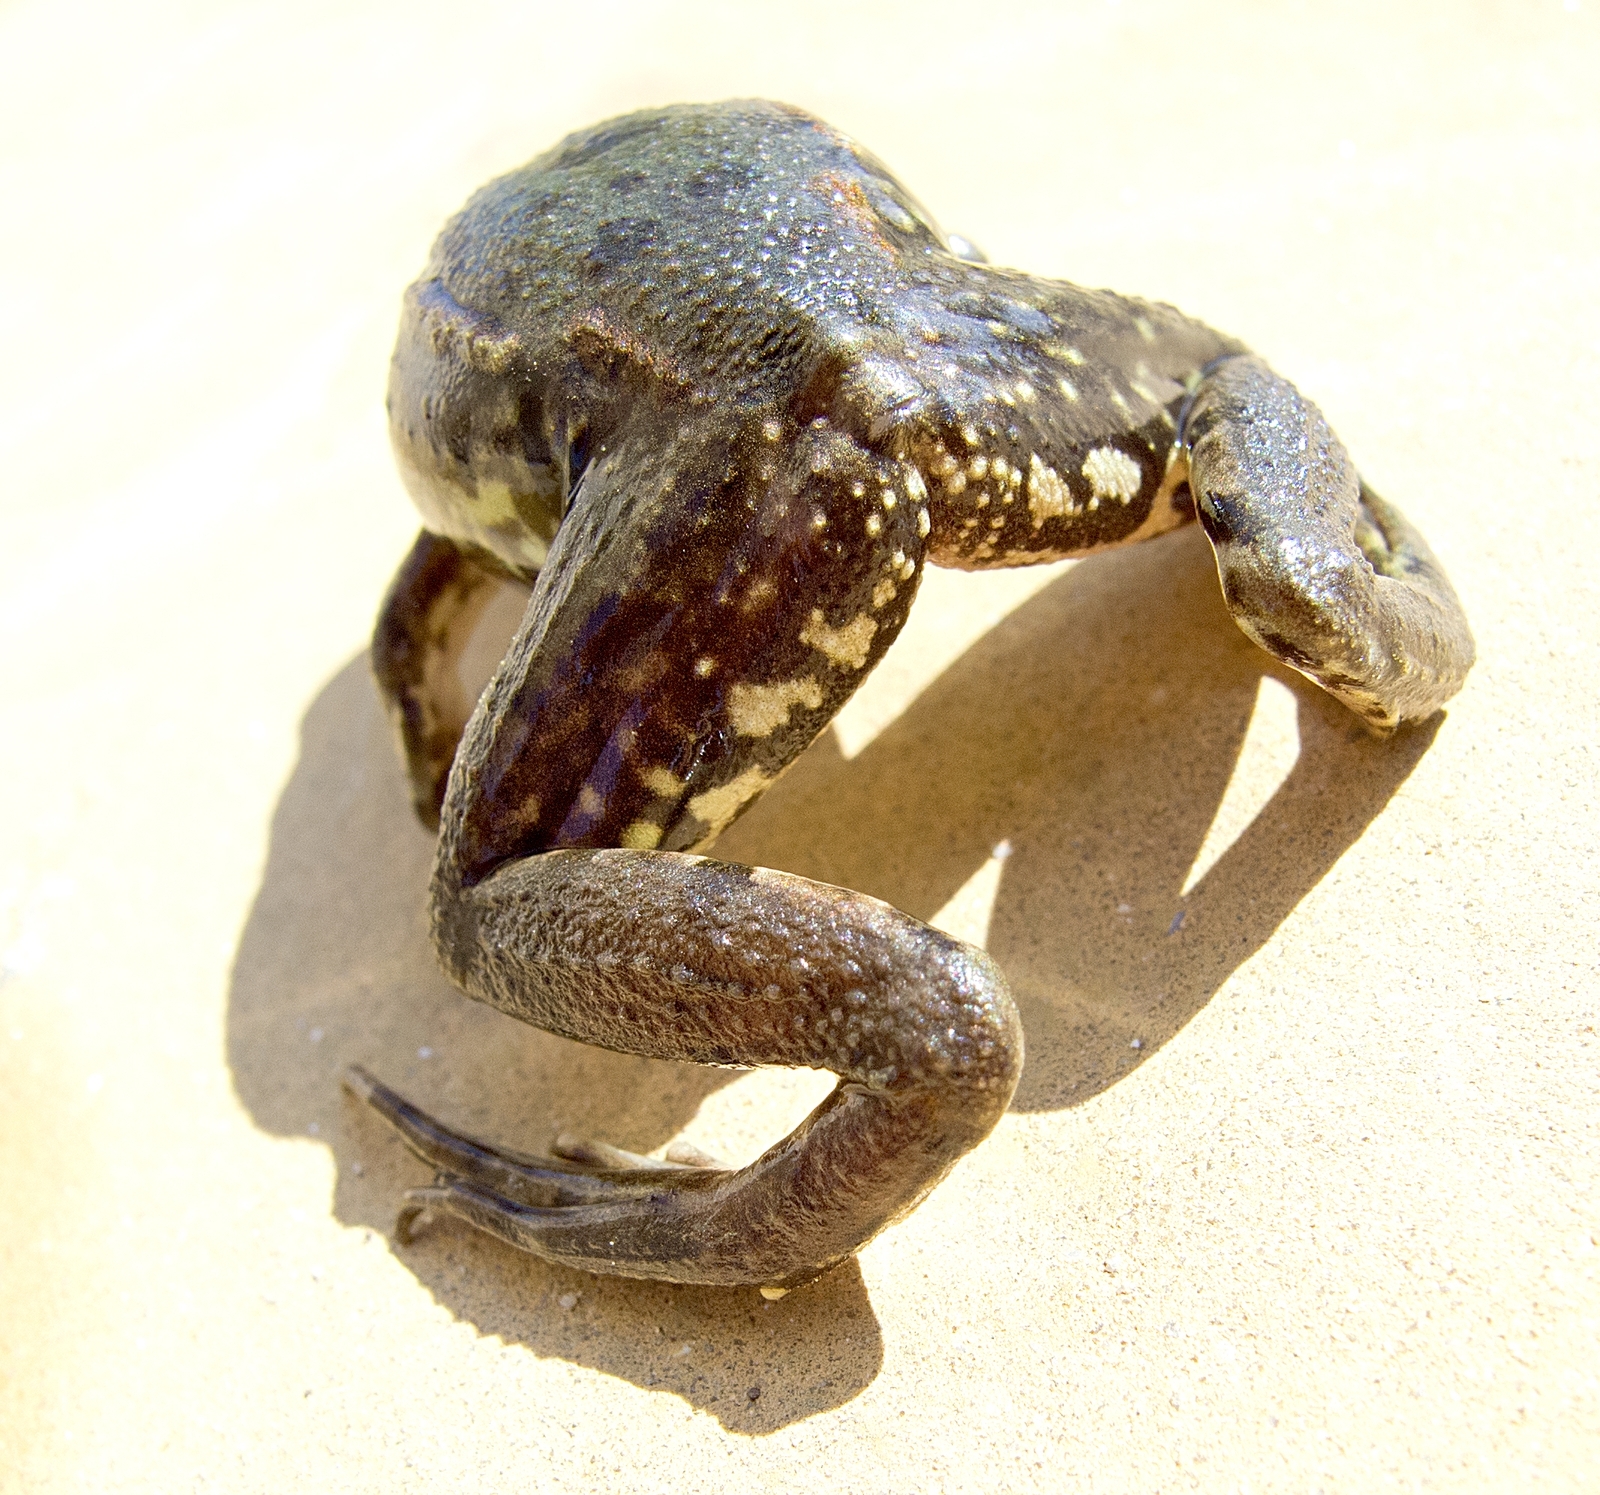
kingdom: Animalia
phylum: Chordata
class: Amphibia
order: Anura
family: Ranidae
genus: Pelophylax
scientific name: Pelophylax
